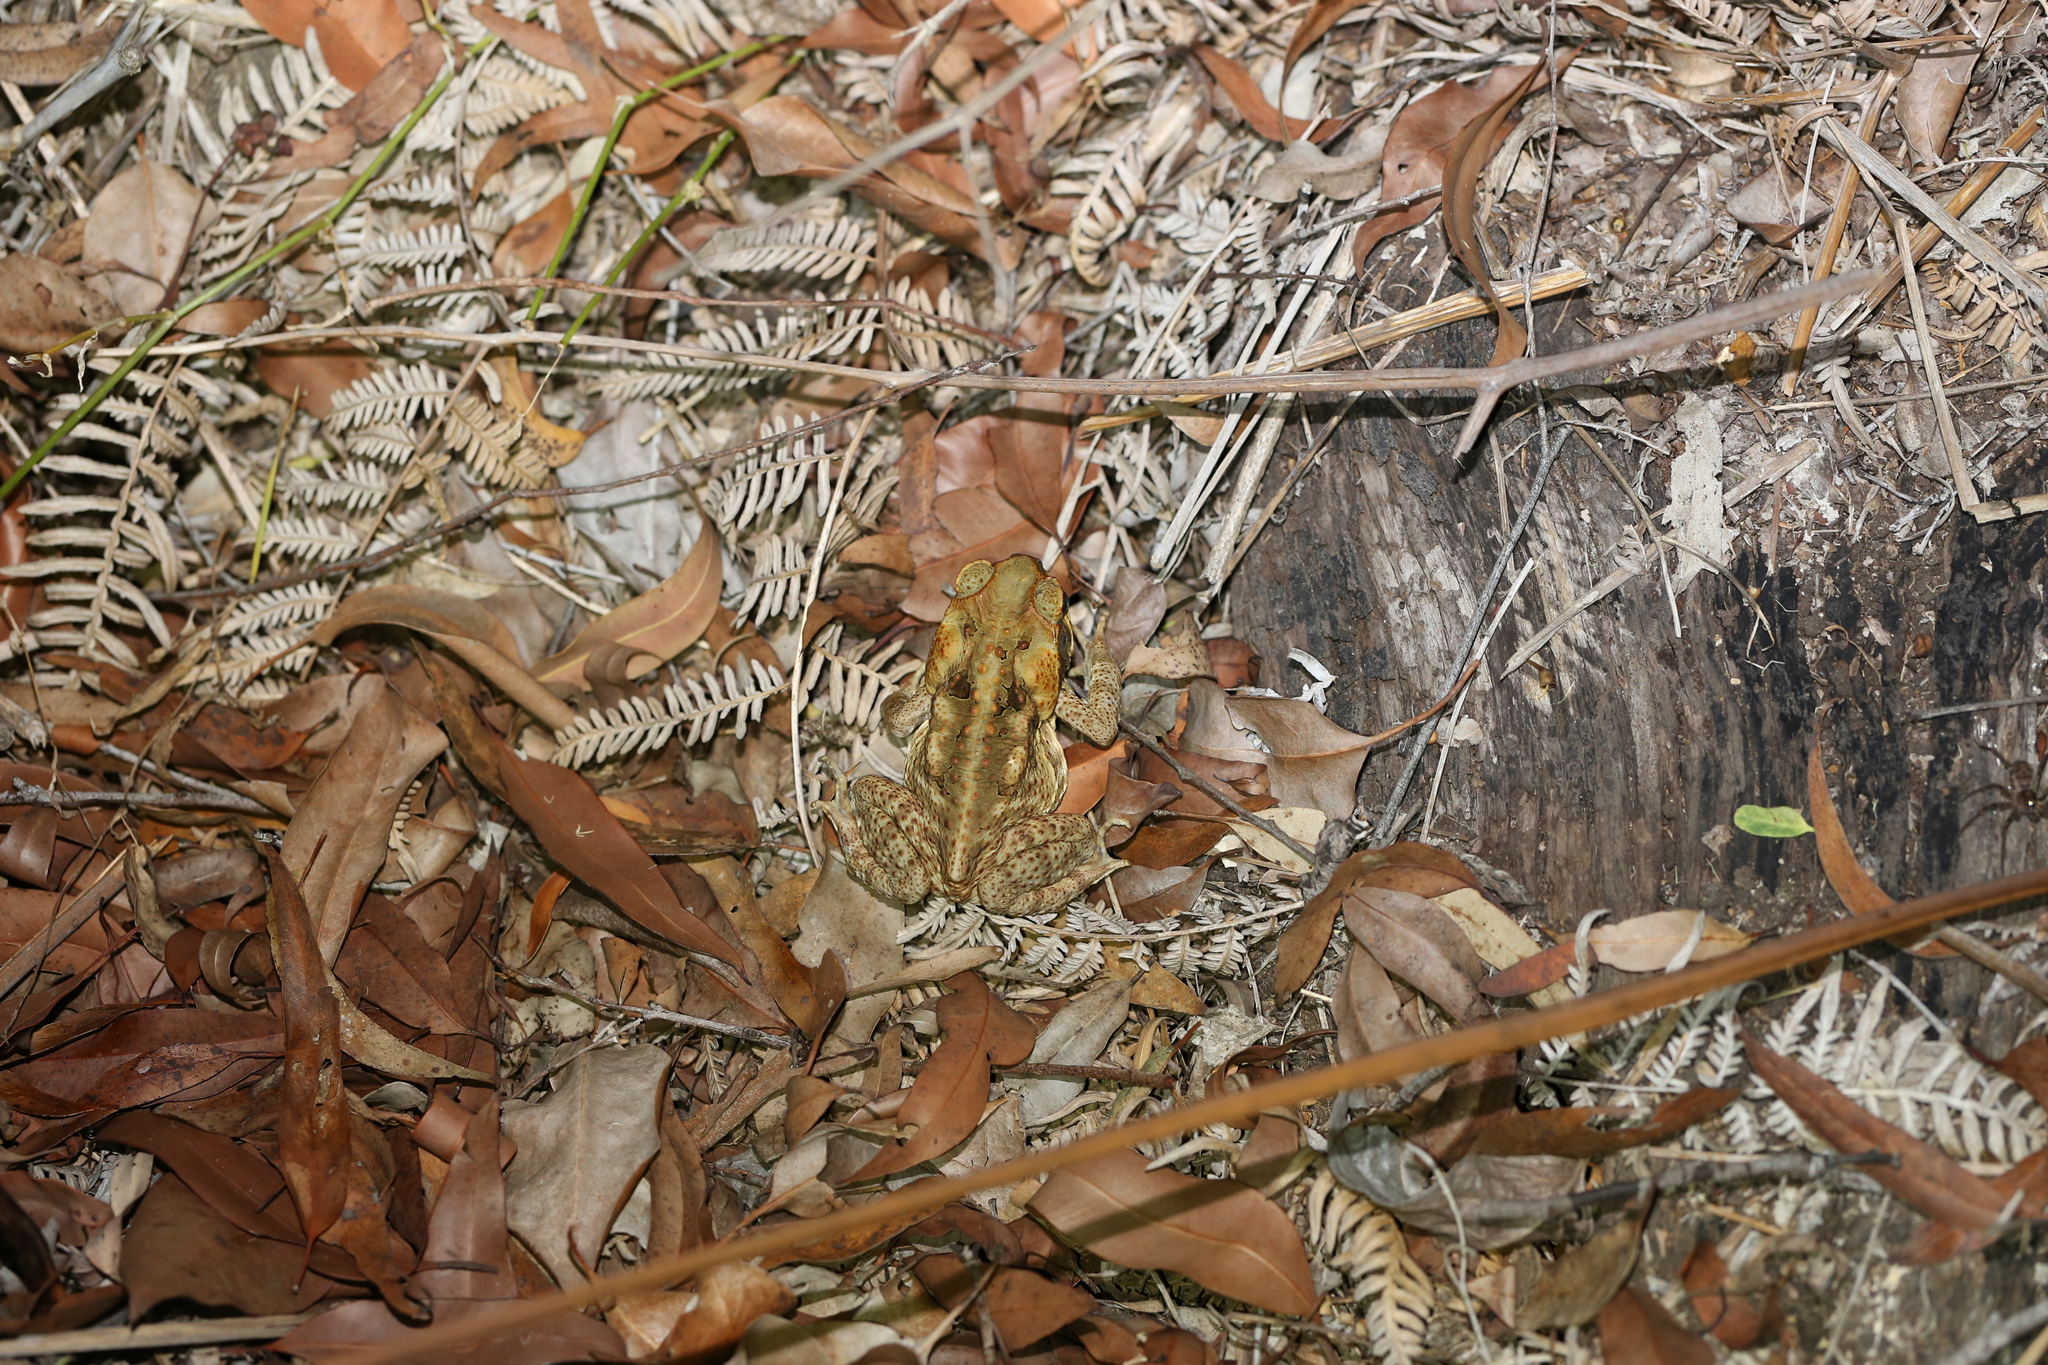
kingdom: Animalia
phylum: Chordata
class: Amphibia
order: Anura
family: Bufonidae
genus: Rhinella
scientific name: Rhinella marina
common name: Cane toad
